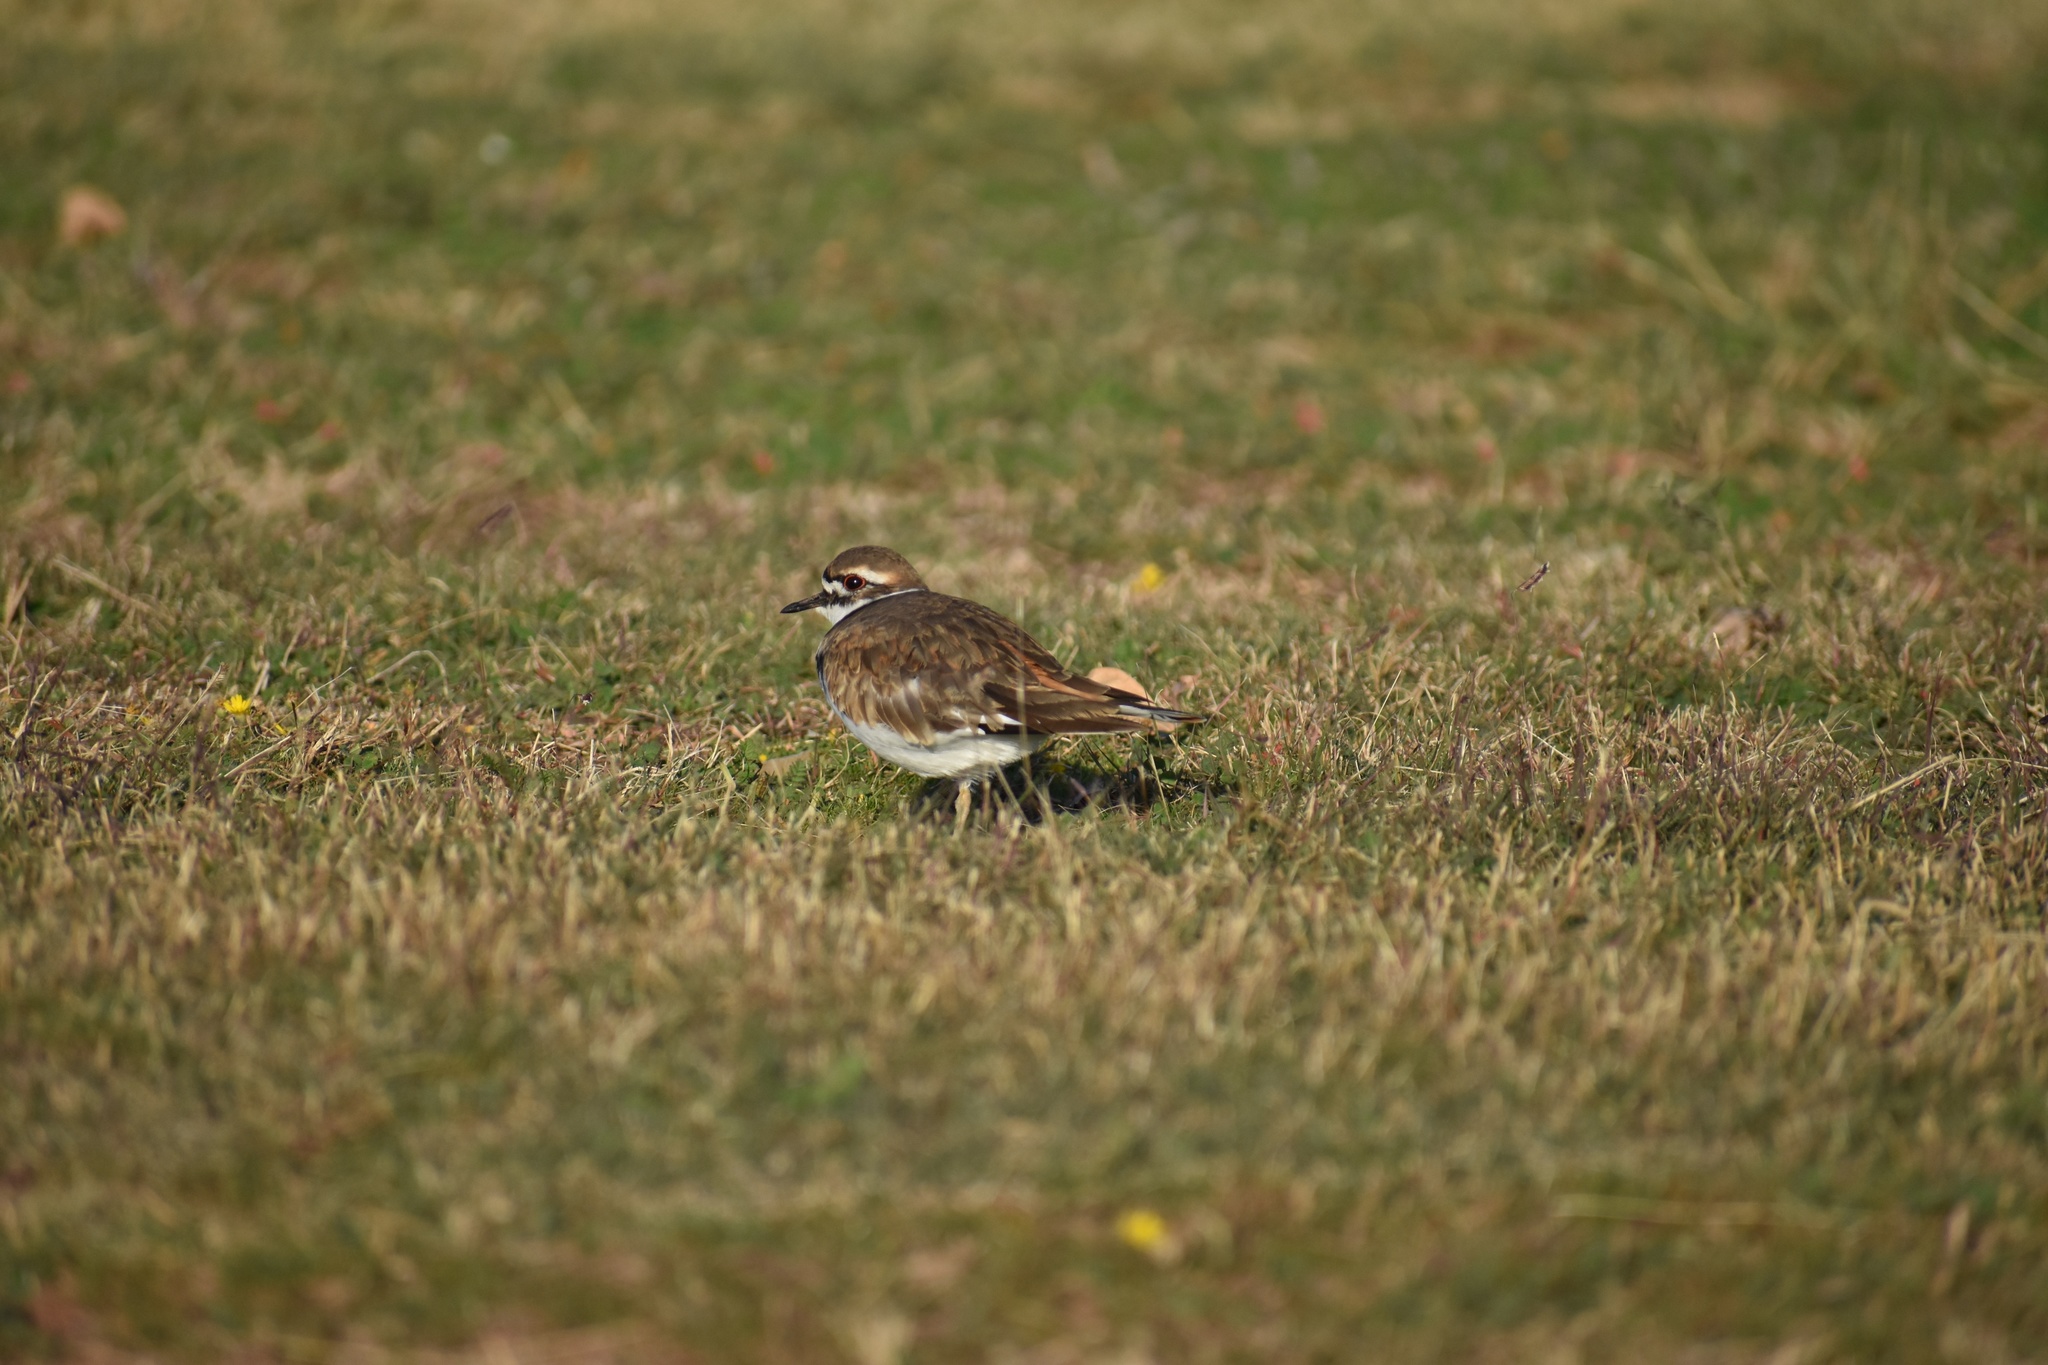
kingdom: Animalia
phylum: Chordata
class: Aves
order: Charadriiformes
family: Charadriidae
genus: Charadrius
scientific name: Charadrius vociferus
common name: Killdeer
